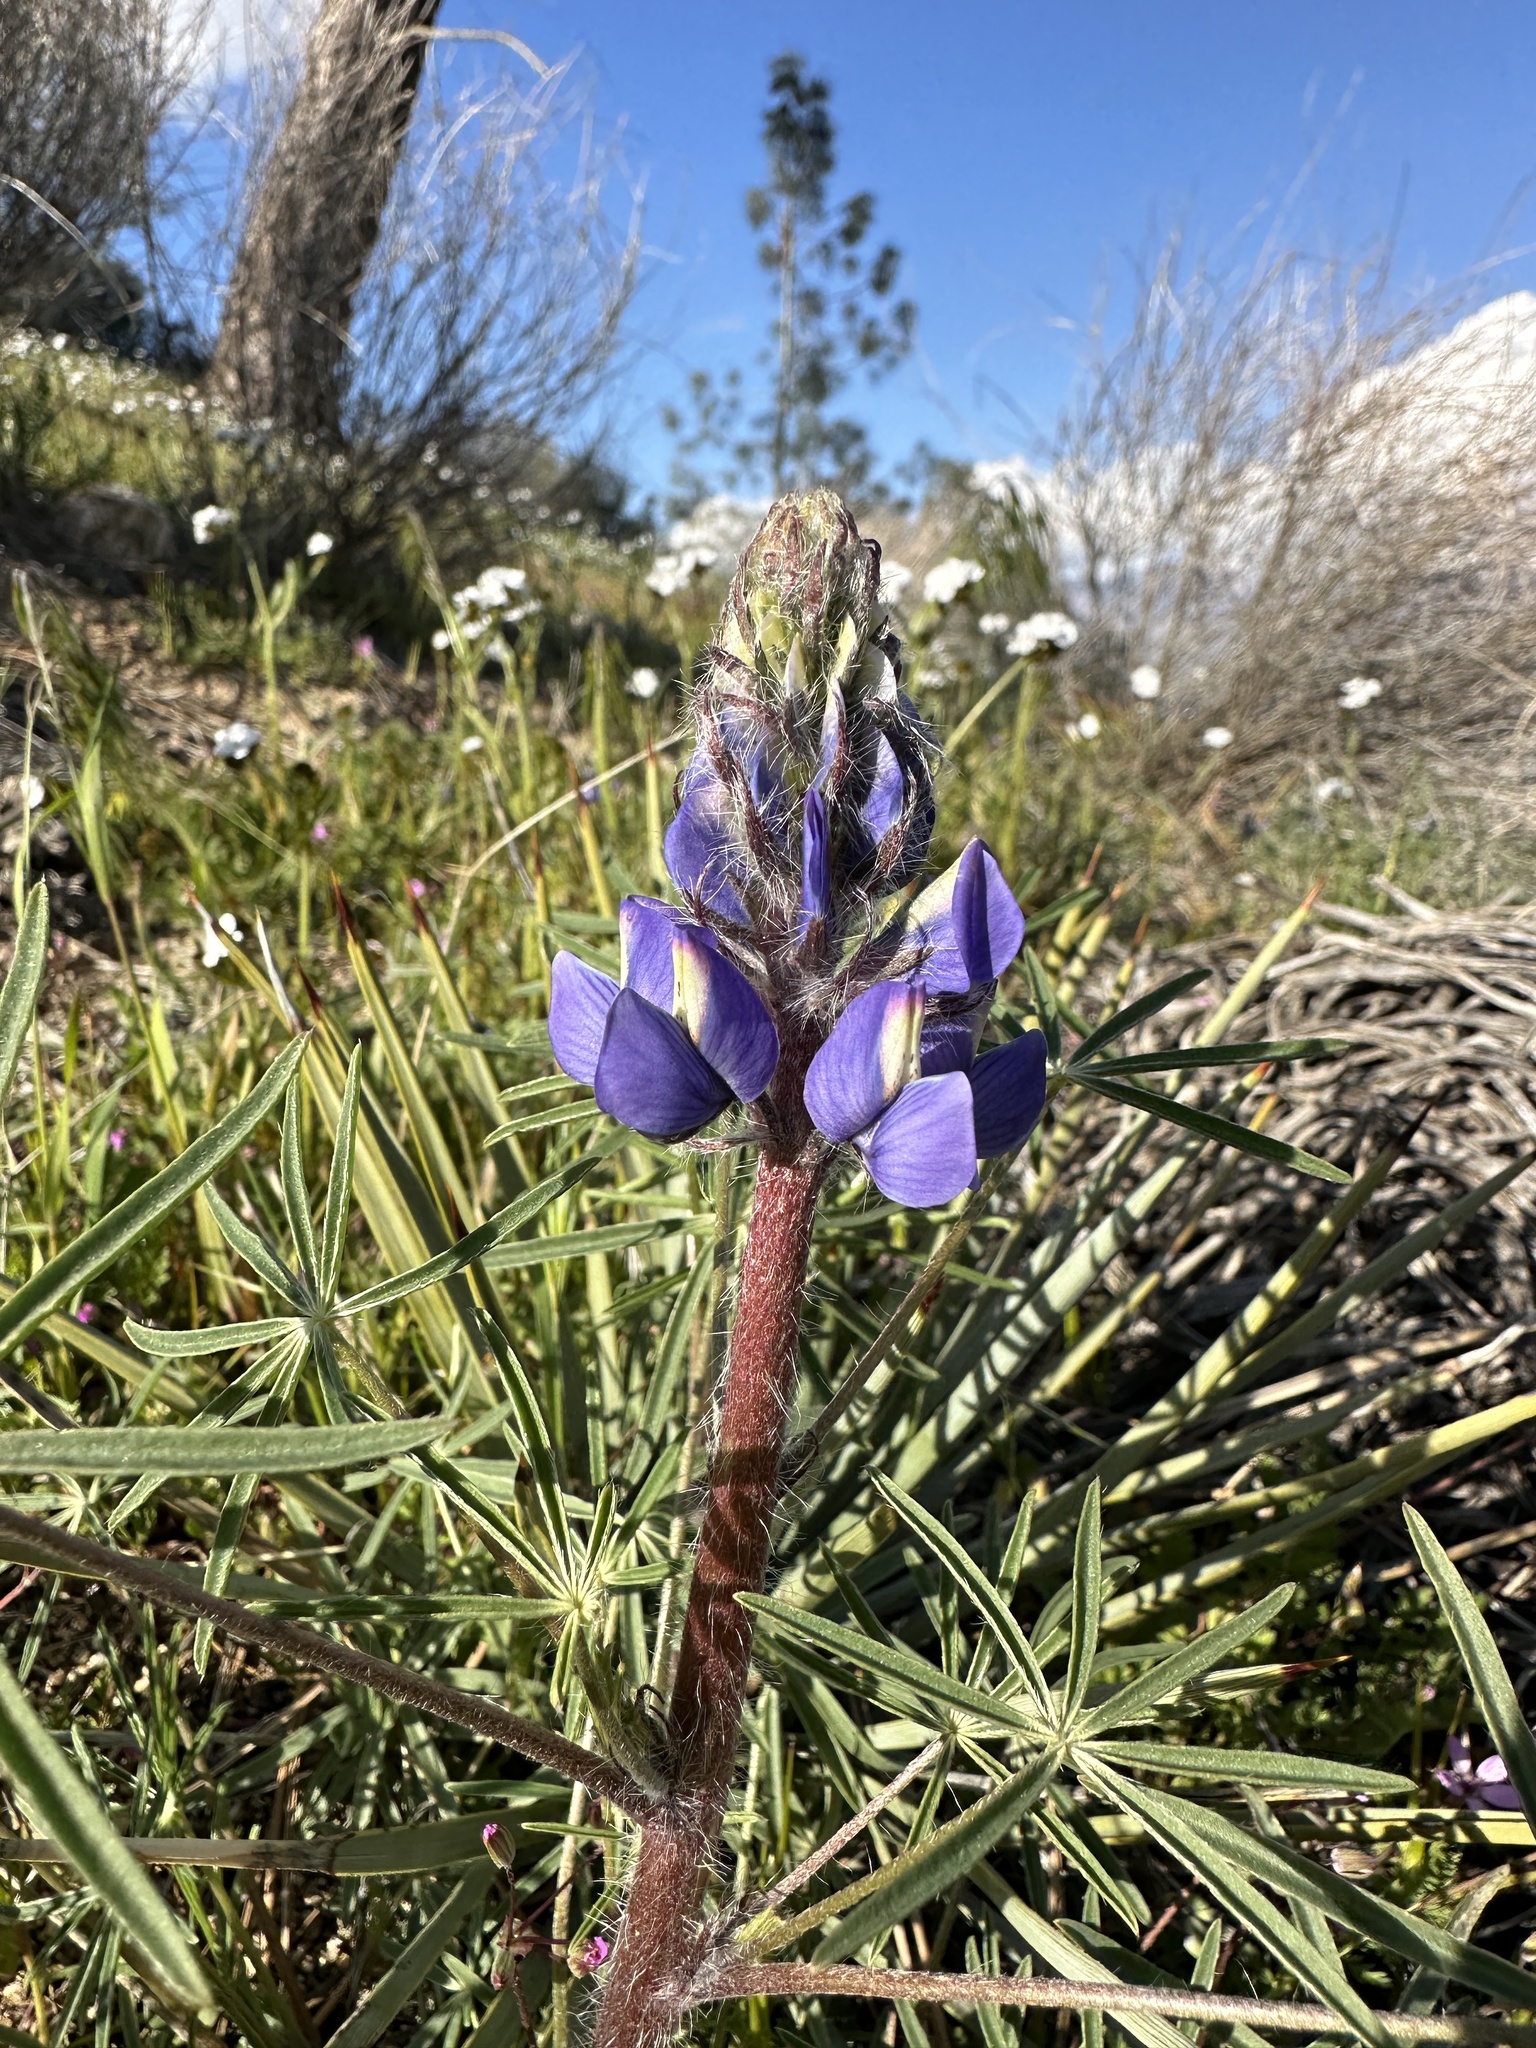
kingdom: Plantae
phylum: Tracheophyta
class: Magnoliopsida
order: Fabales
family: Fabaceae
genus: Lupinus
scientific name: Lupinus benthamii
